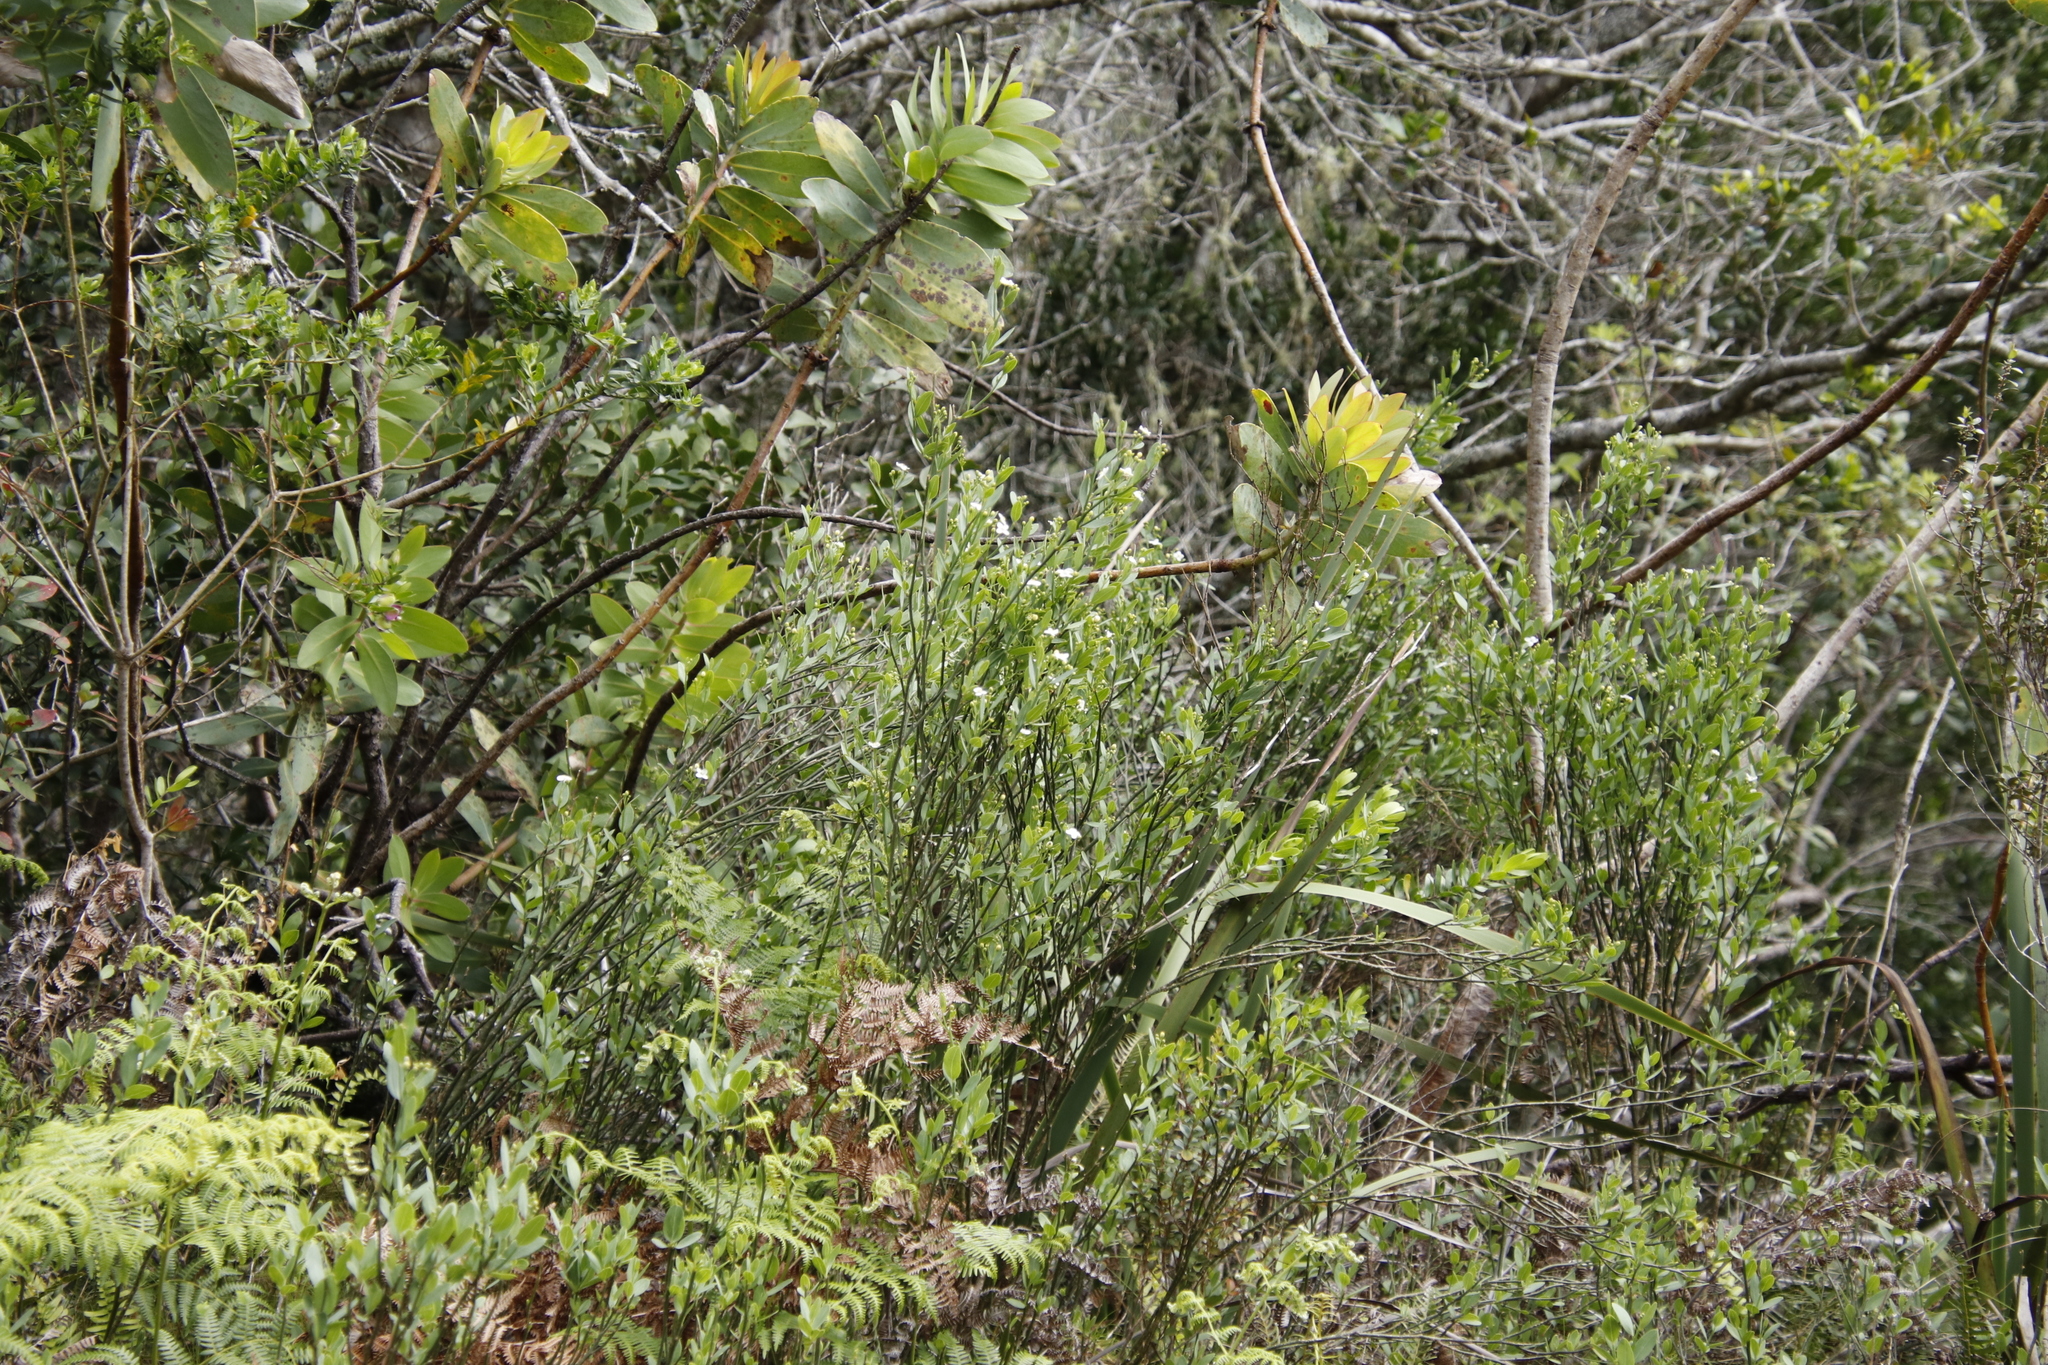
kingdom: Plantae
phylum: Tracheophyta
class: Magnoliopsida
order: Solanales
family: Montiniaceae
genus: Montinia
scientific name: Montinia caryophyllacea
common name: Wild clove-bush
